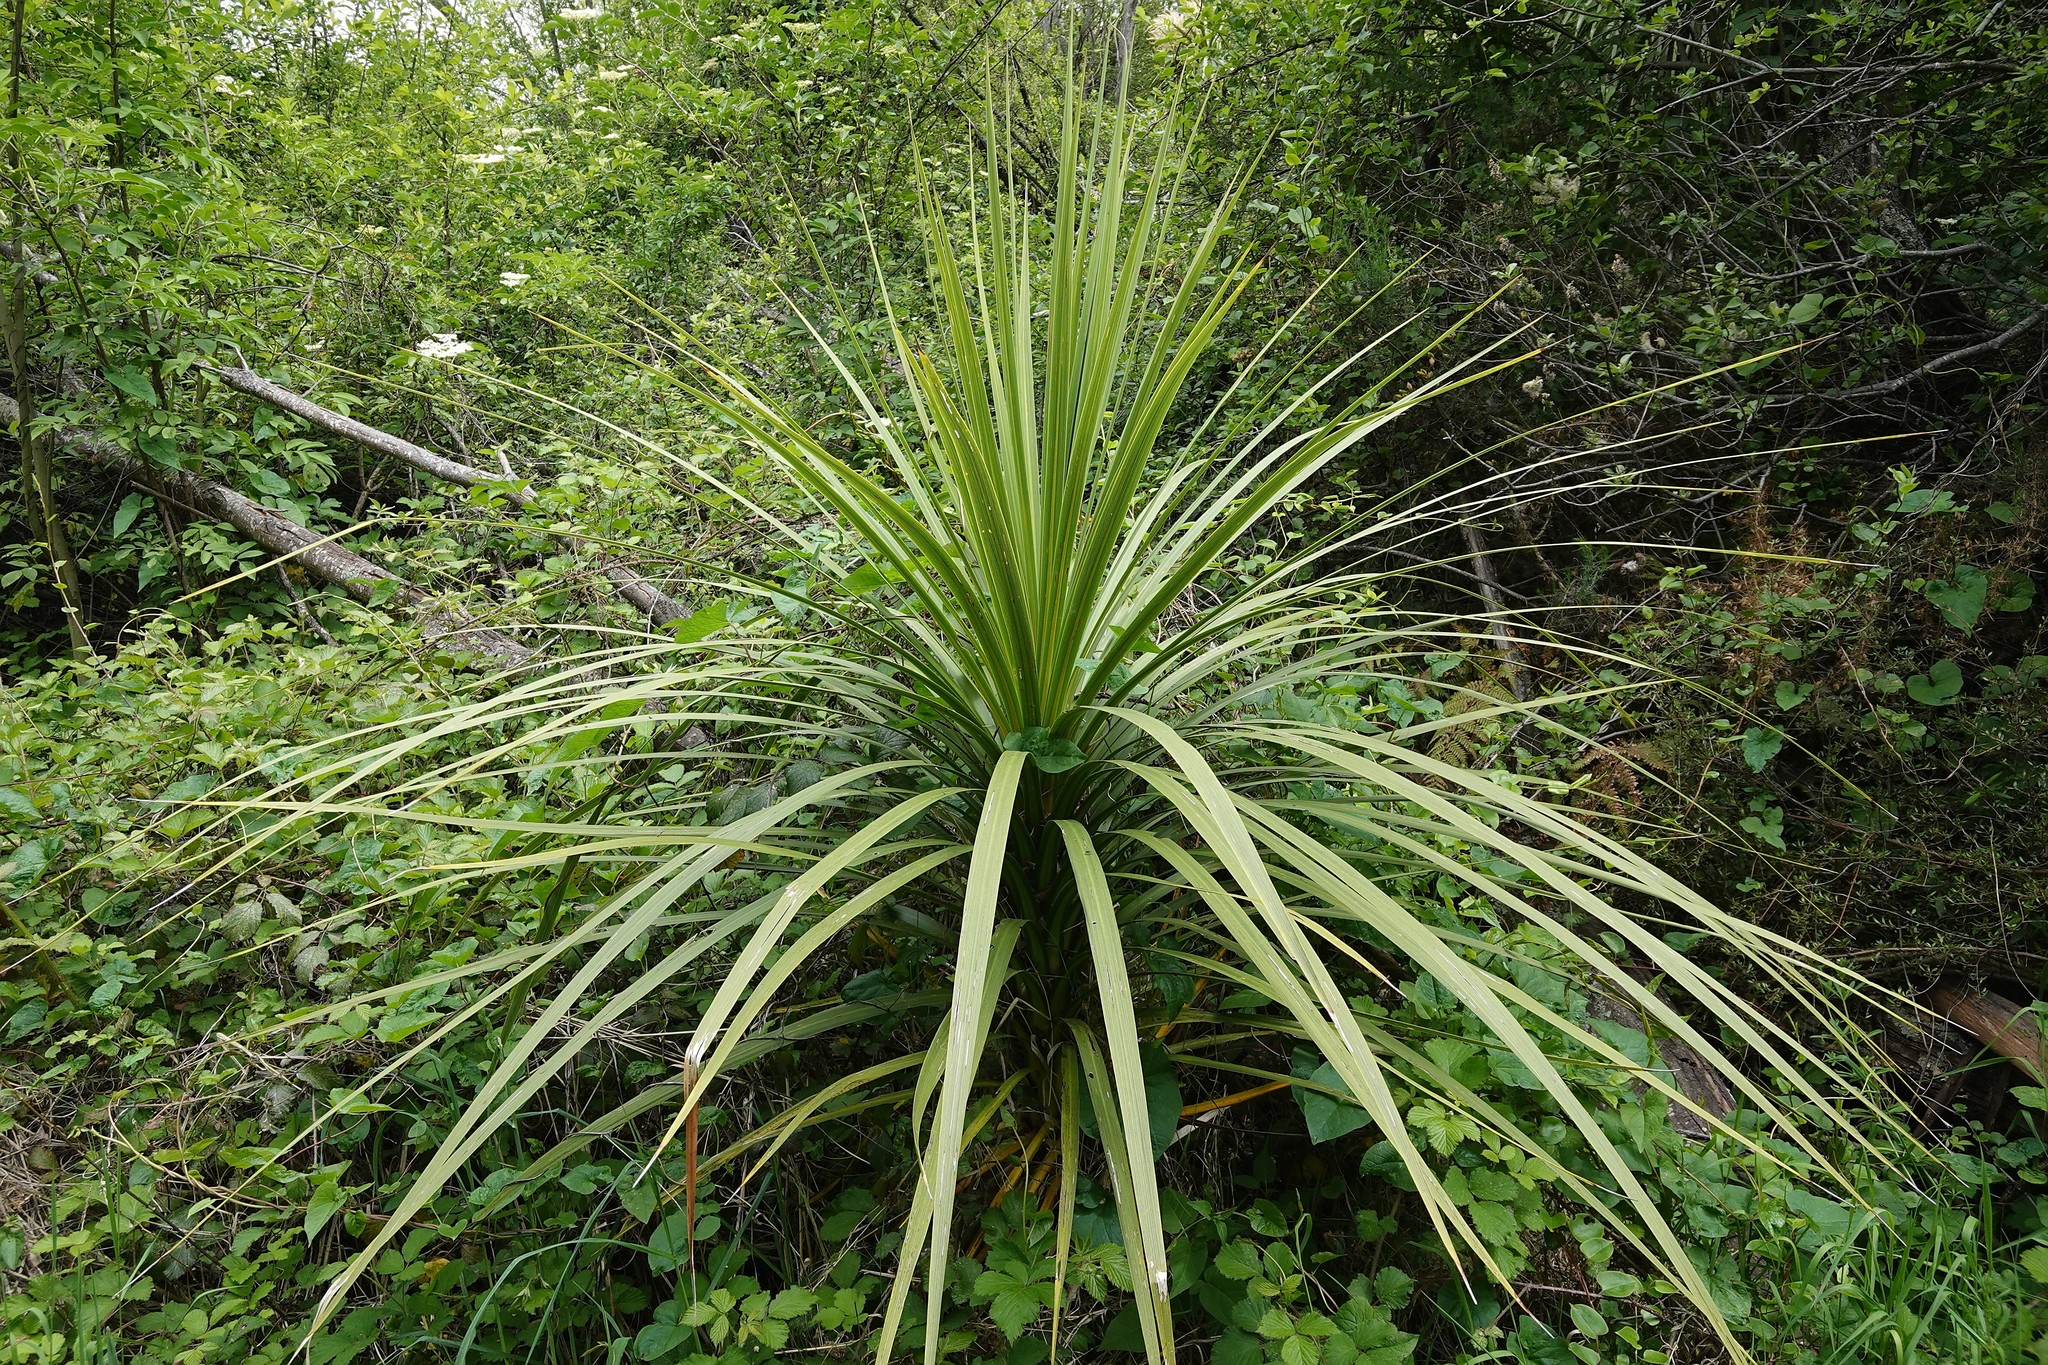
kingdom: Plantae
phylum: Tracheophyta
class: Liliopsida
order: Asparagales
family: Asparagaceae
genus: Cordyline
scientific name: Cordyline australis
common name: Cabbage-palm
